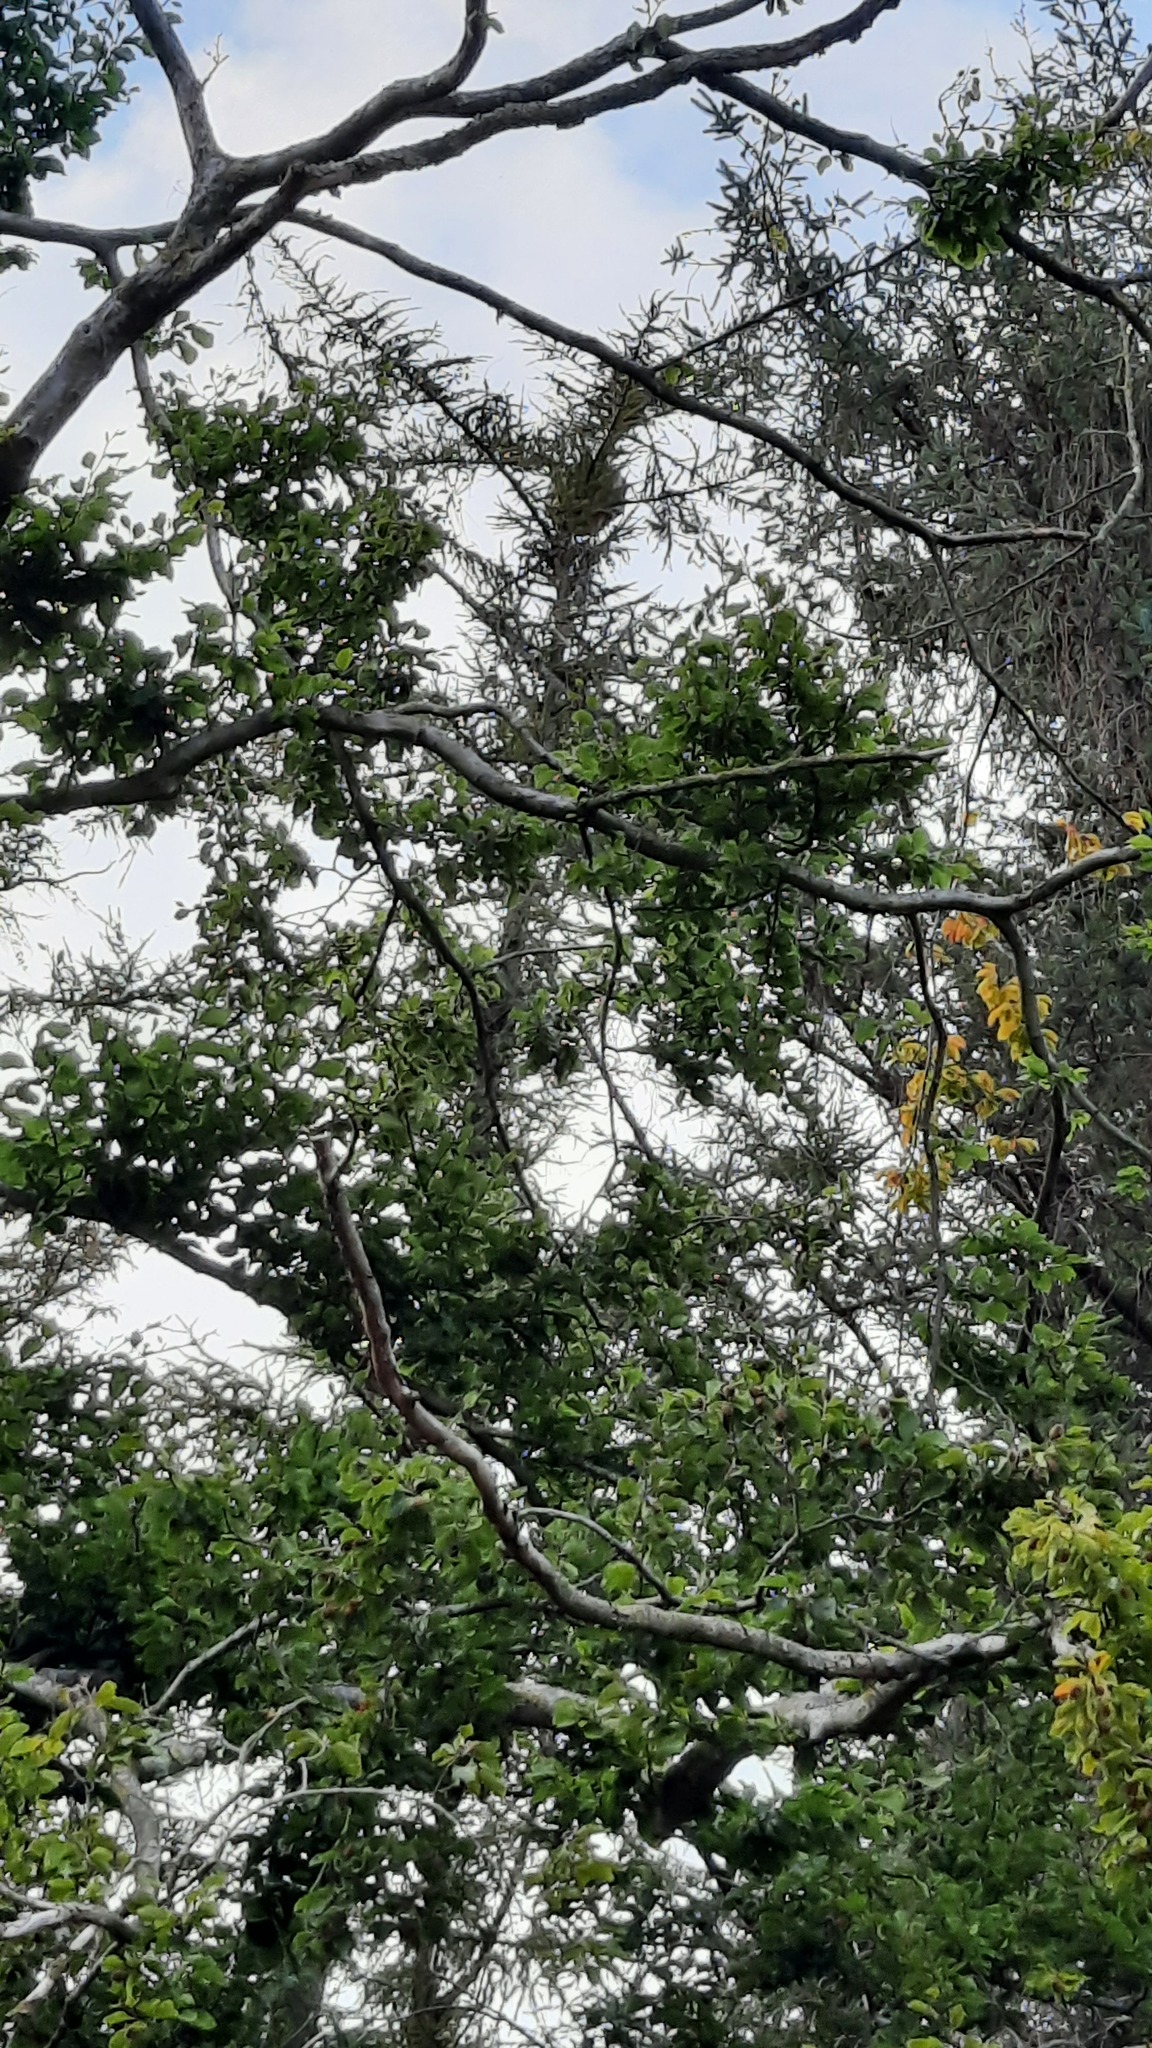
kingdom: Animalia
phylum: Arthropoda
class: Insecta
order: Hymenoptera
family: Vespidae
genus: Vespa
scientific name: Vespa velutina
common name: Asian hornet
